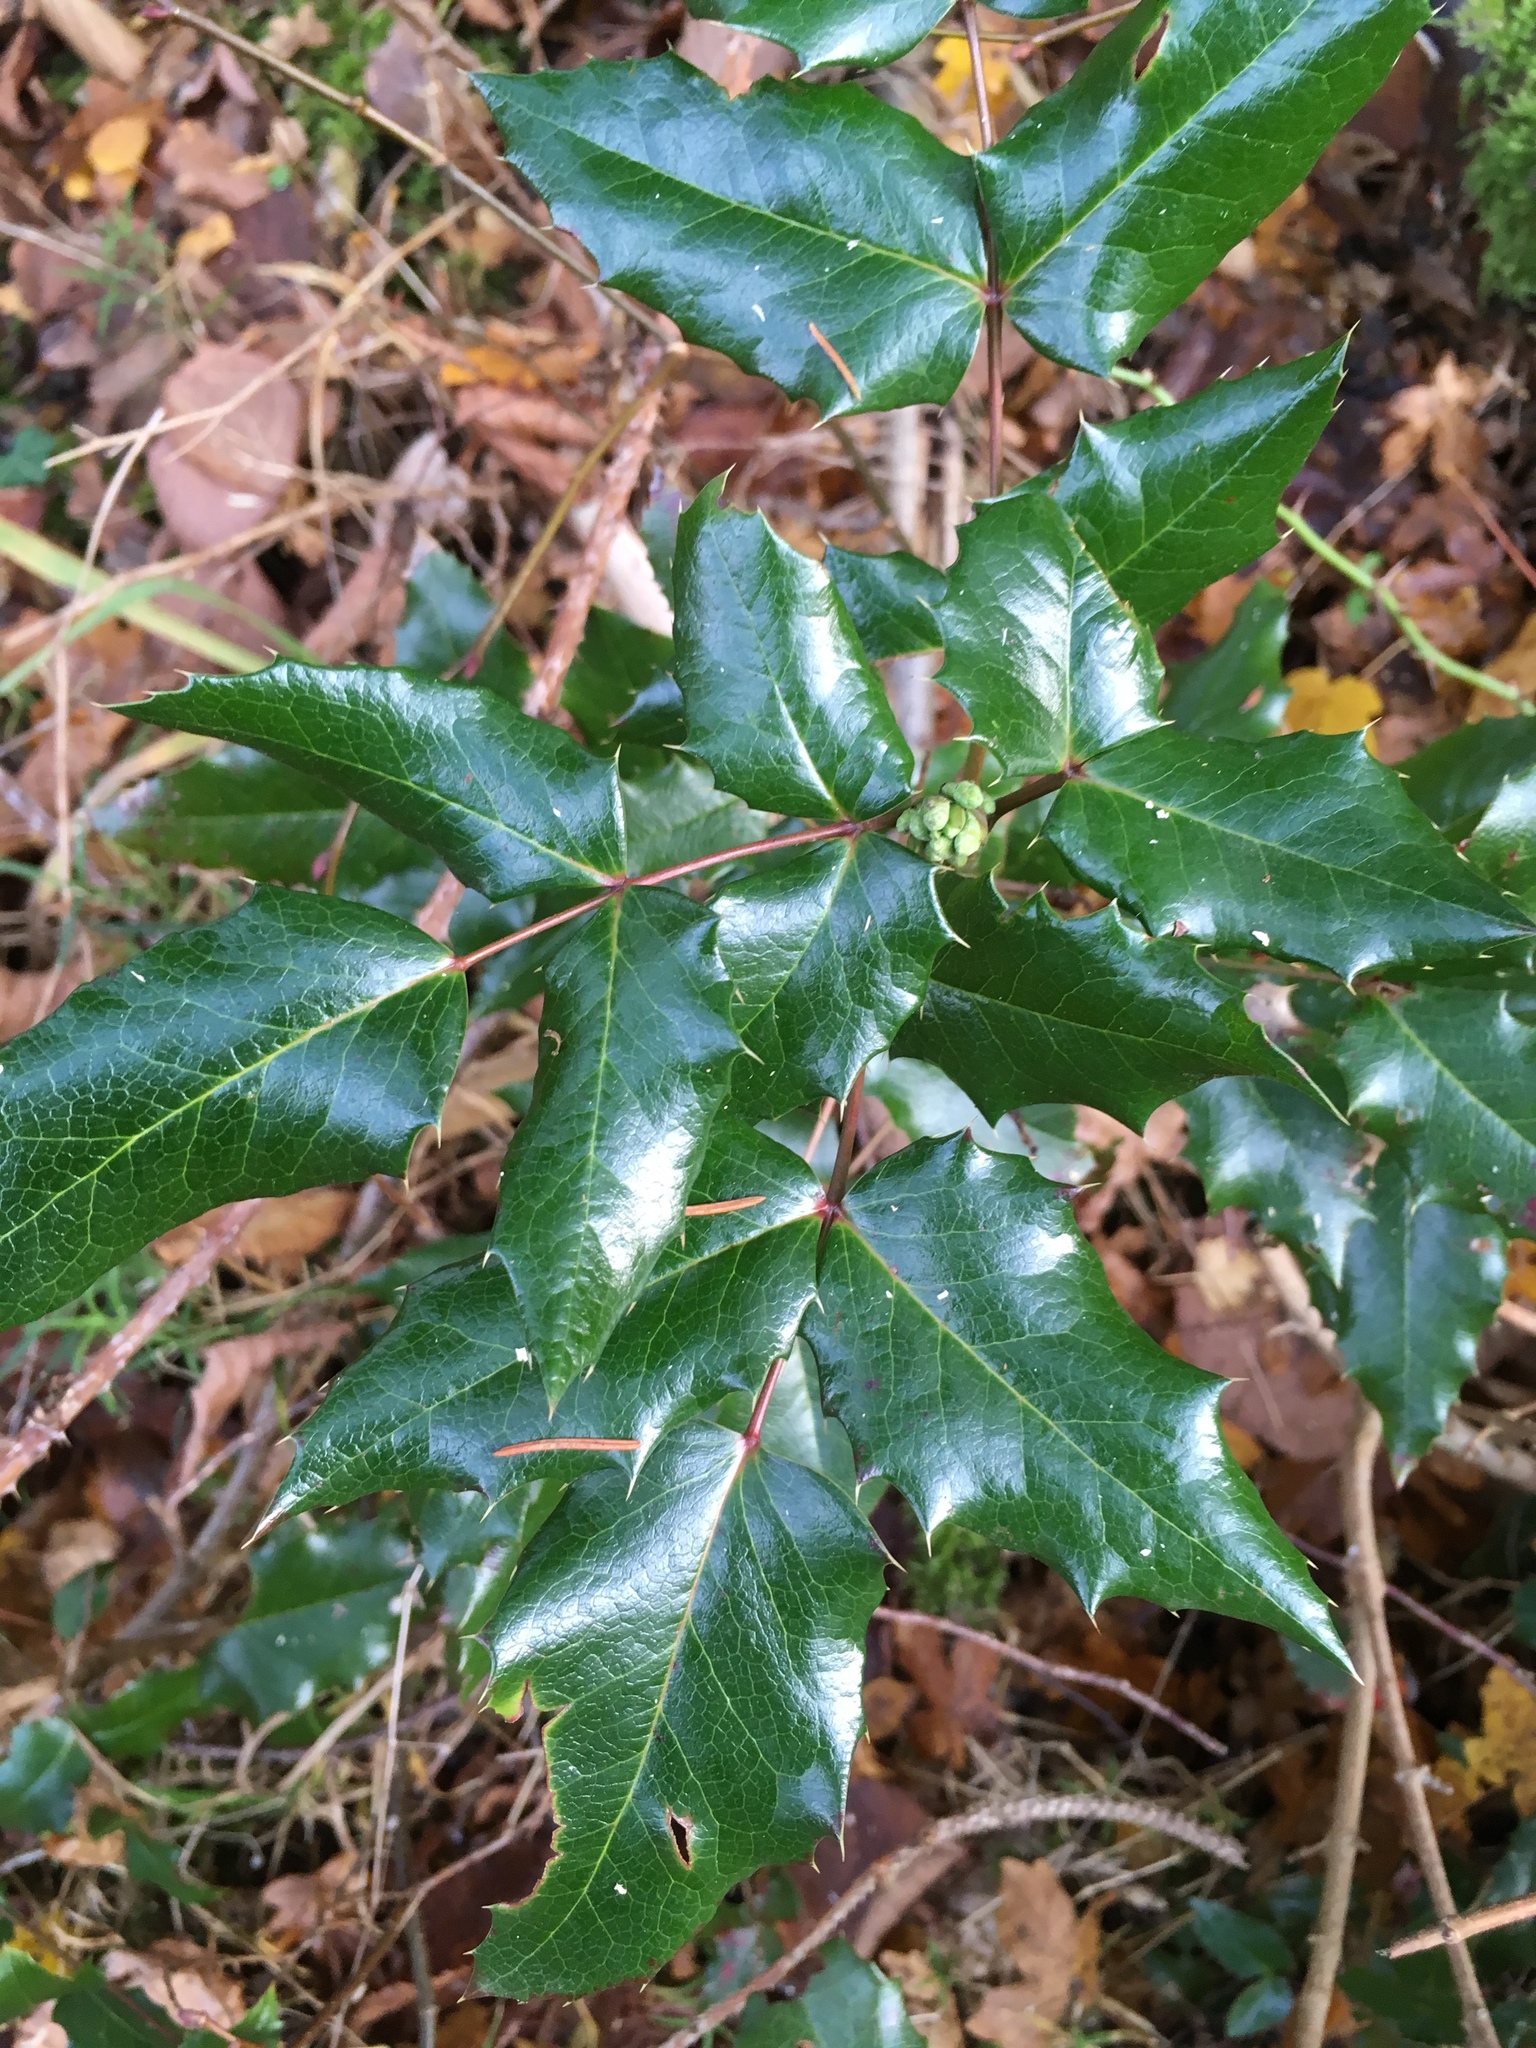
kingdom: Plantae
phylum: Tracheophyta
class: Magnoliopsida
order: Ranunculales
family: Berberidaceae
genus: Mahonia
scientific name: Mahonia aquifolium
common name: Oregon-grape
